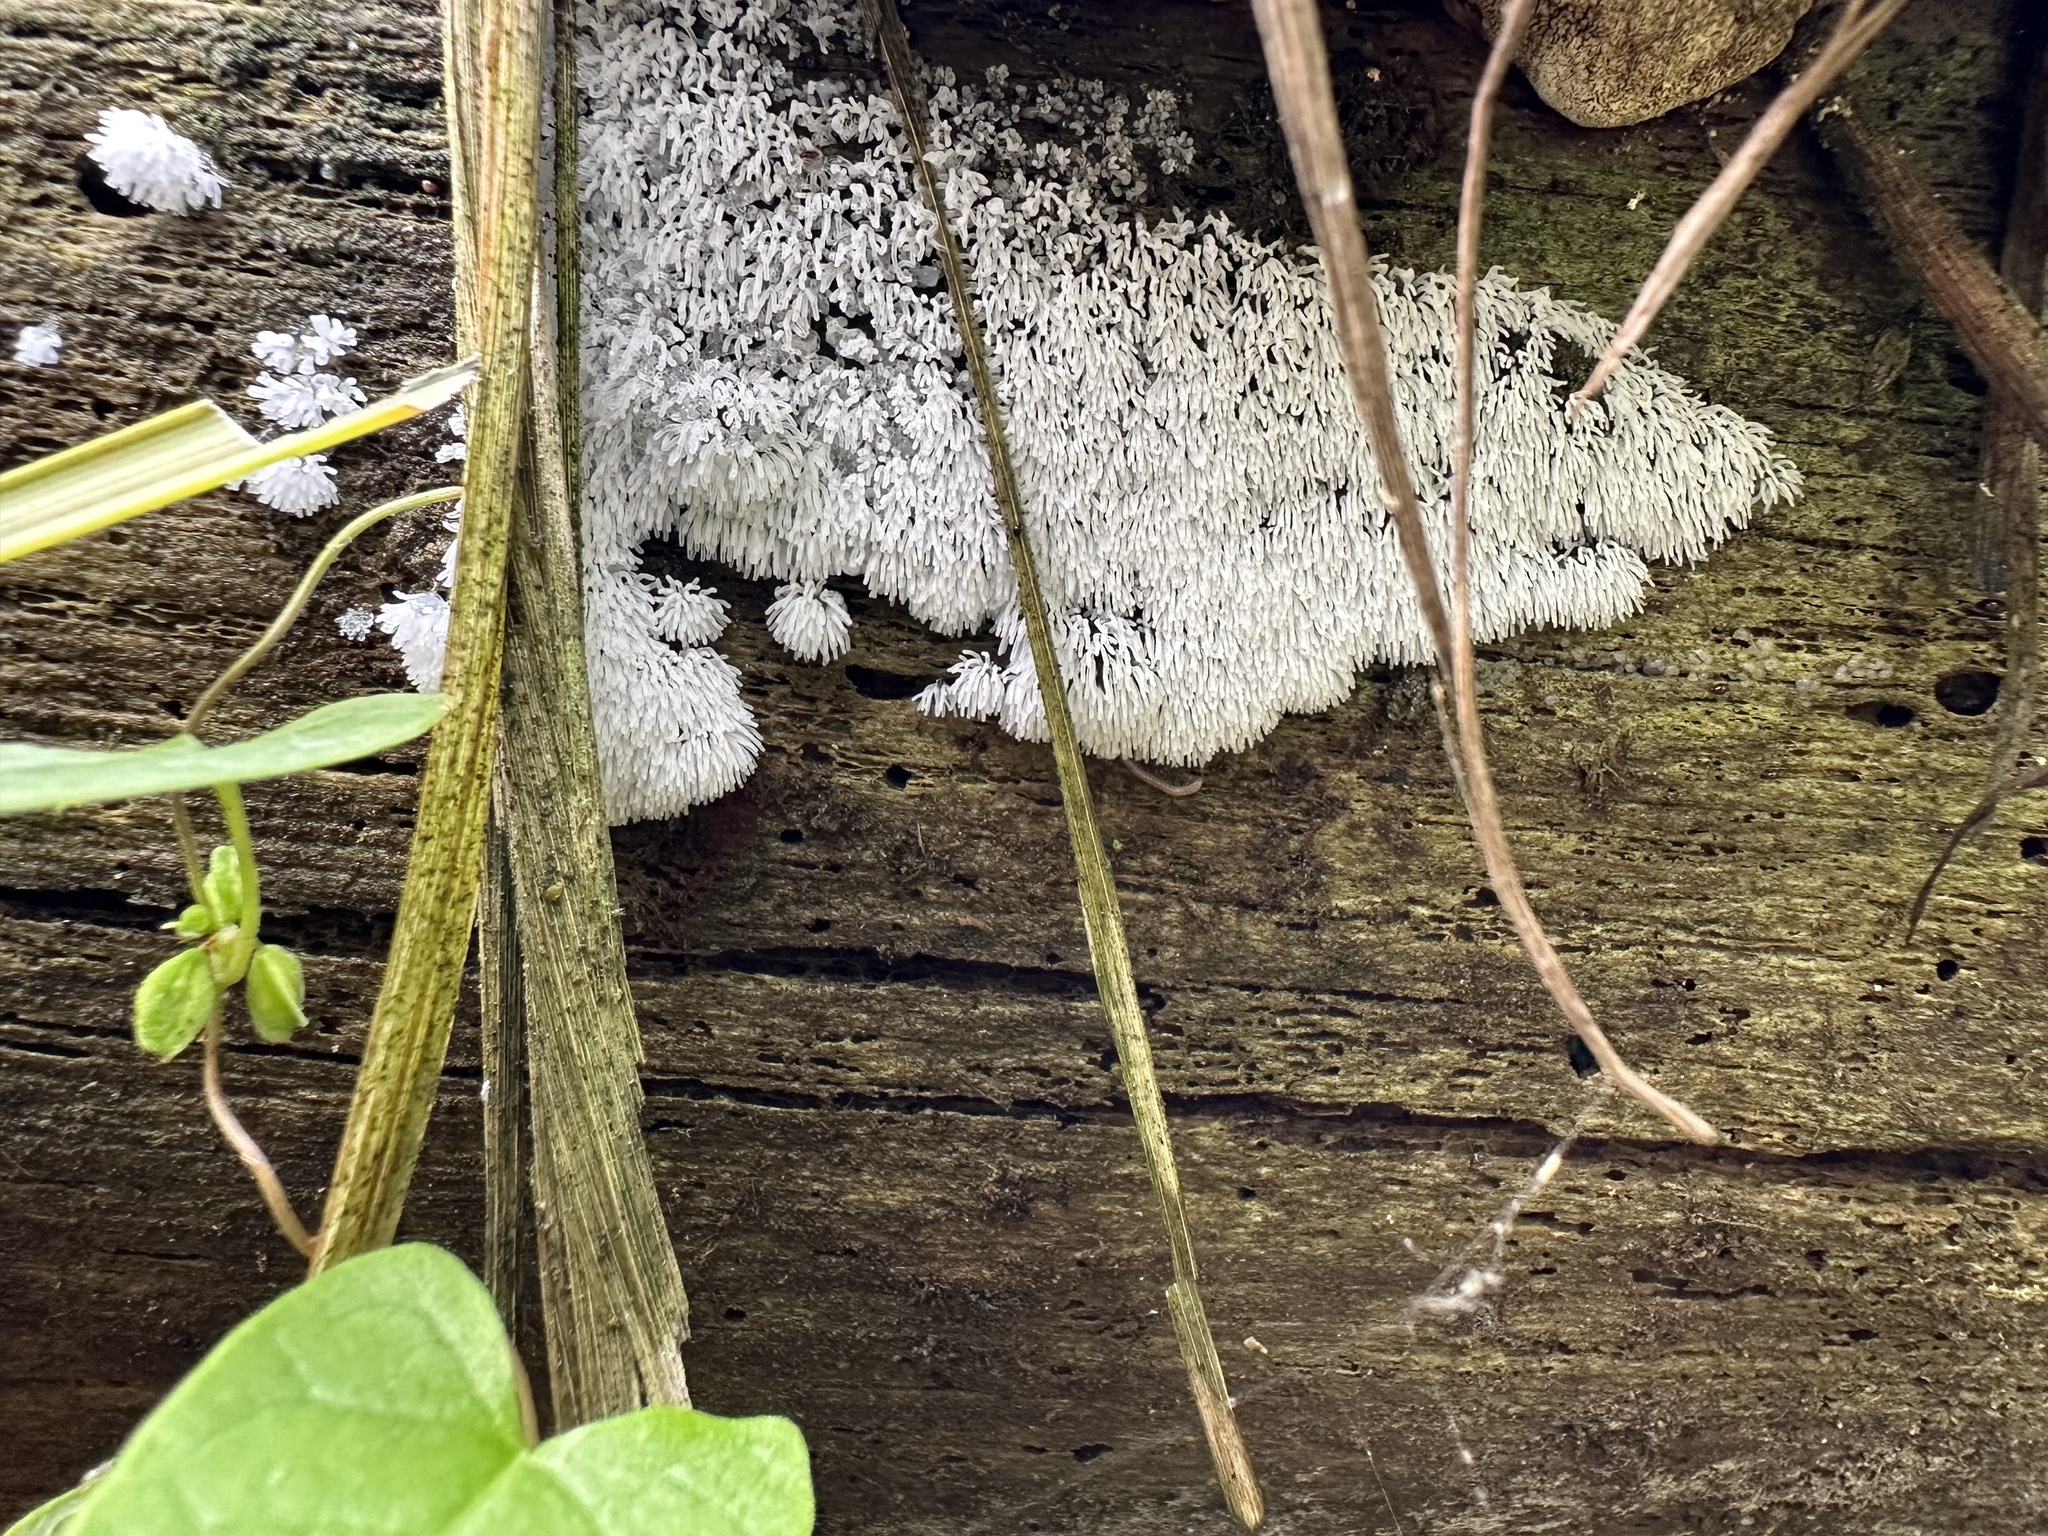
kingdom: Protozoa
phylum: Mycetozoa
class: Protosteliomycetes
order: Ceratiomyxales
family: Ceratiomyxaceae
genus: Ceratiomyxa
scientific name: Ceratiomyxa fruticulosa
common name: Honeycomb coral slime mold
